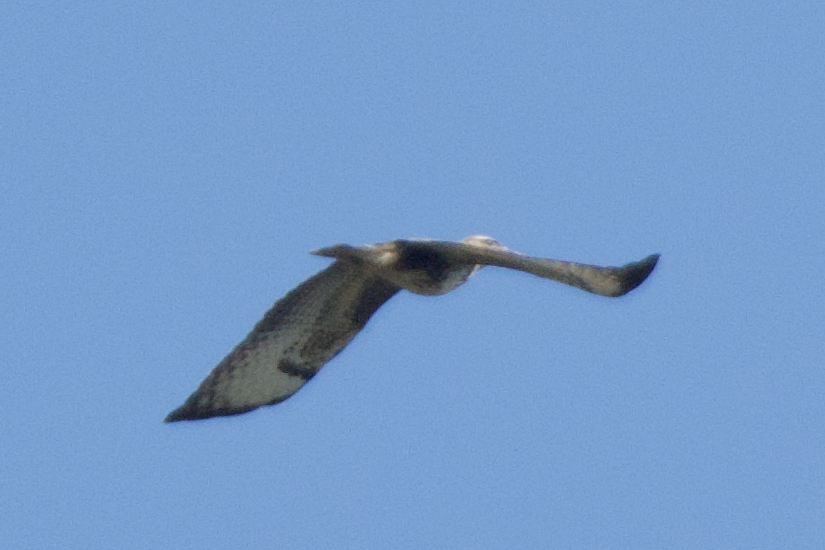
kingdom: Animalia
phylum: Chordata
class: Aves
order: Accipitriformes
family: Accipitridae
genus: Buteo
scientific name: Buteo buteo
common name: Common buzzard
